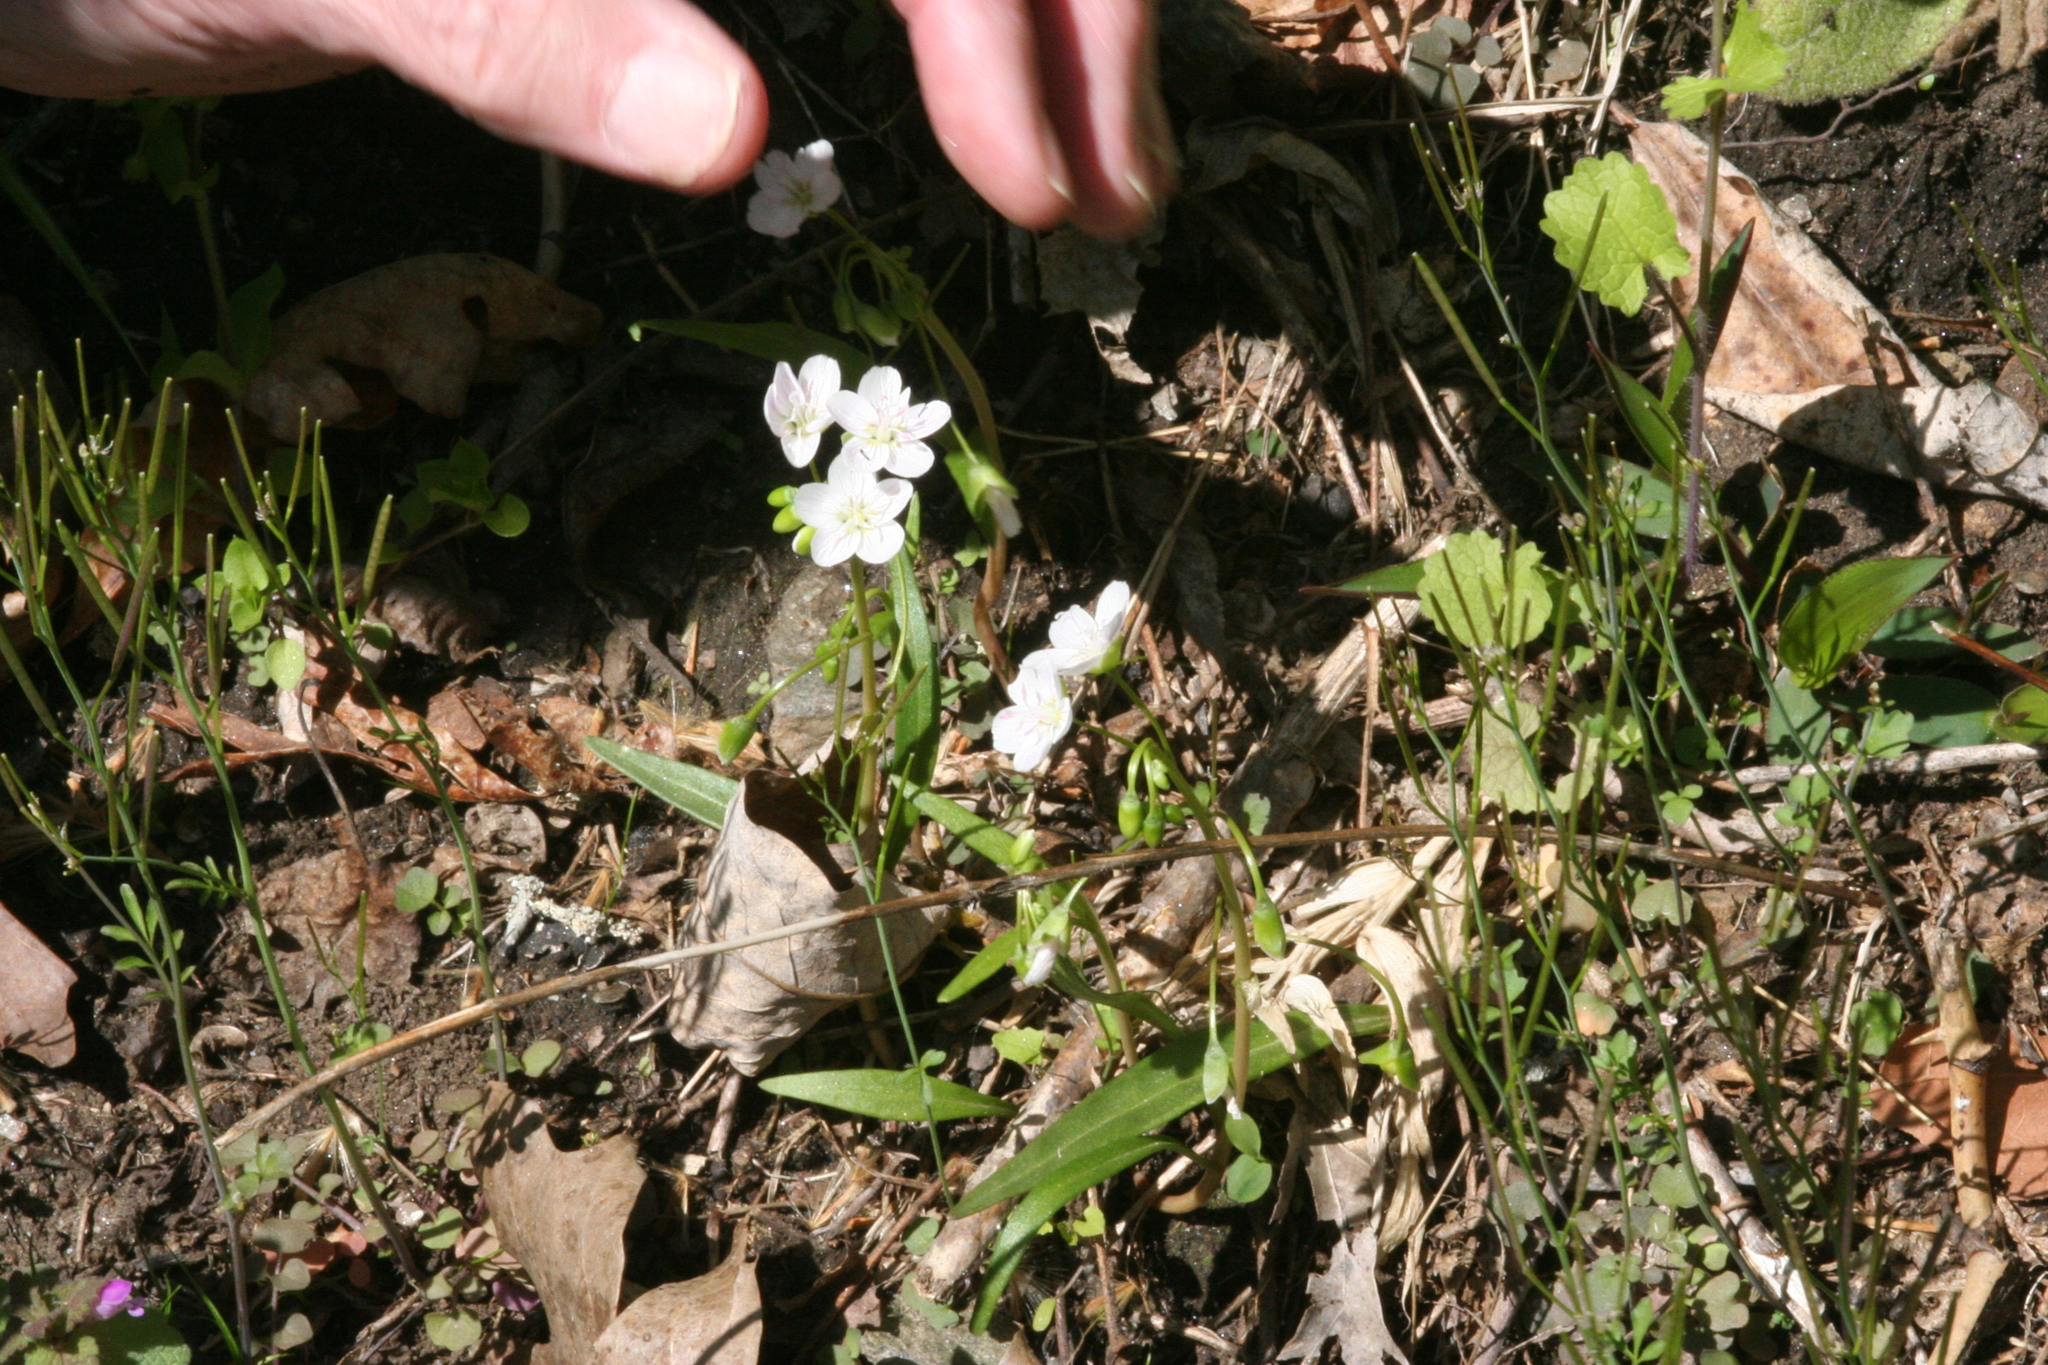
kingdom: Plantae
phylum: Tracheophyta
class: Magnoliopsida
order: Caryophyllales
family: Montiaceae
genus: Claytonia
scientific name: Claytonia virginica
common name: Virginia springbeauty
